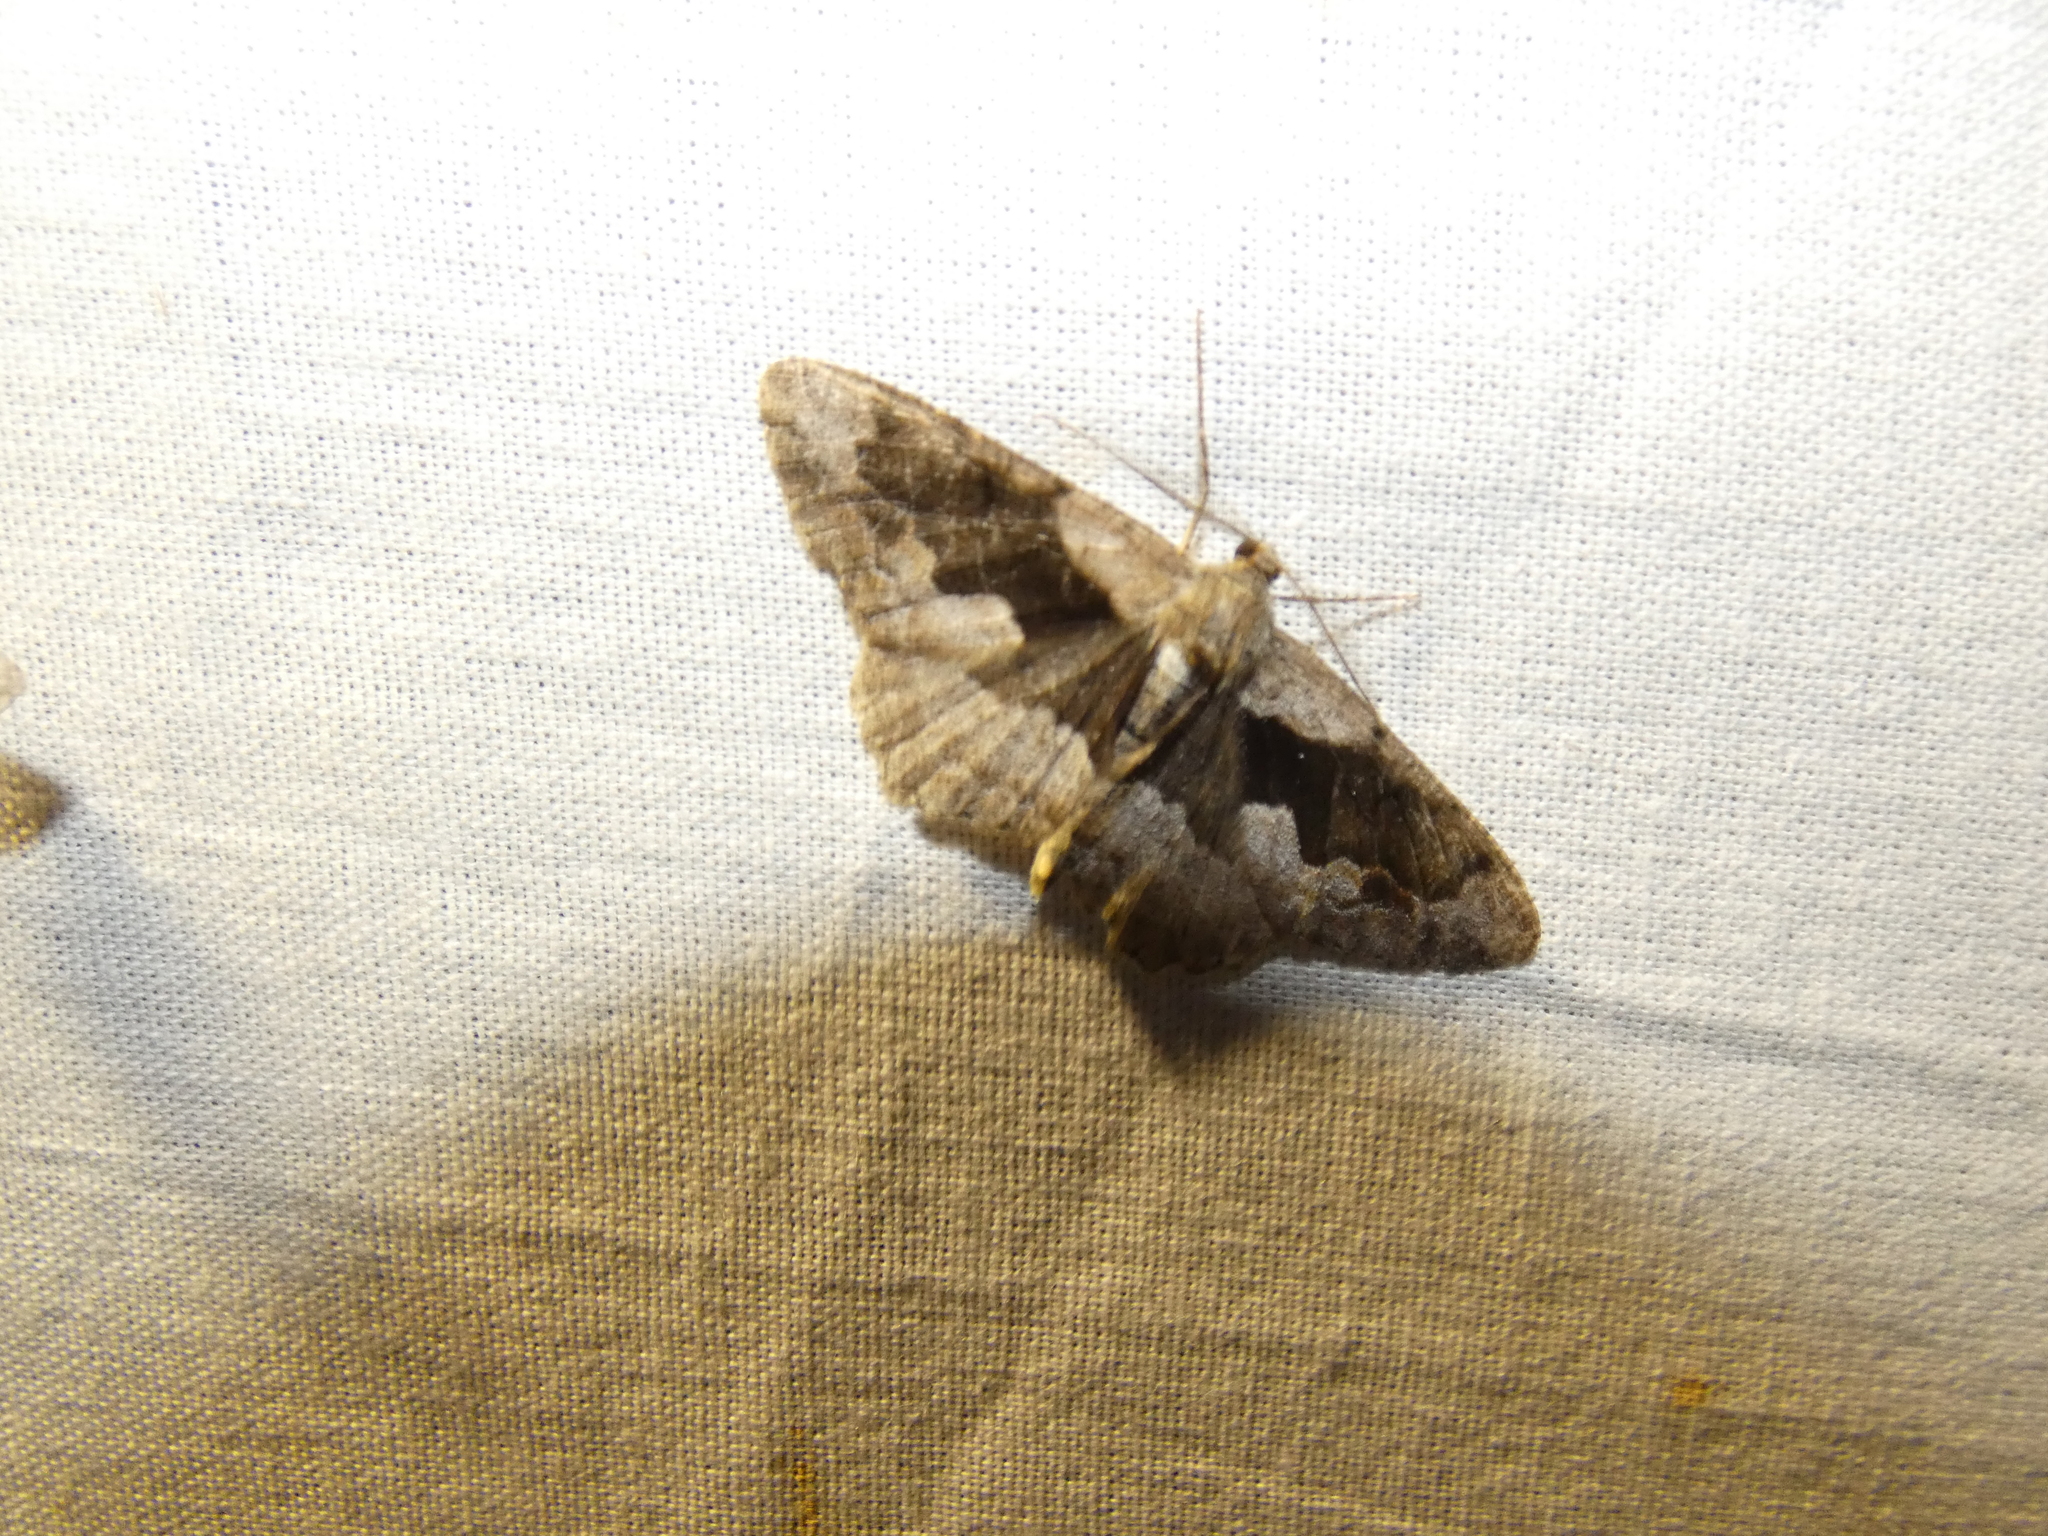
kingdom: Animalia
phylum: Arthropoda
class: Insecta
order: Lepidoptera
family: Geometridae
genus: Alcis
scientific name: Alcis deversata
